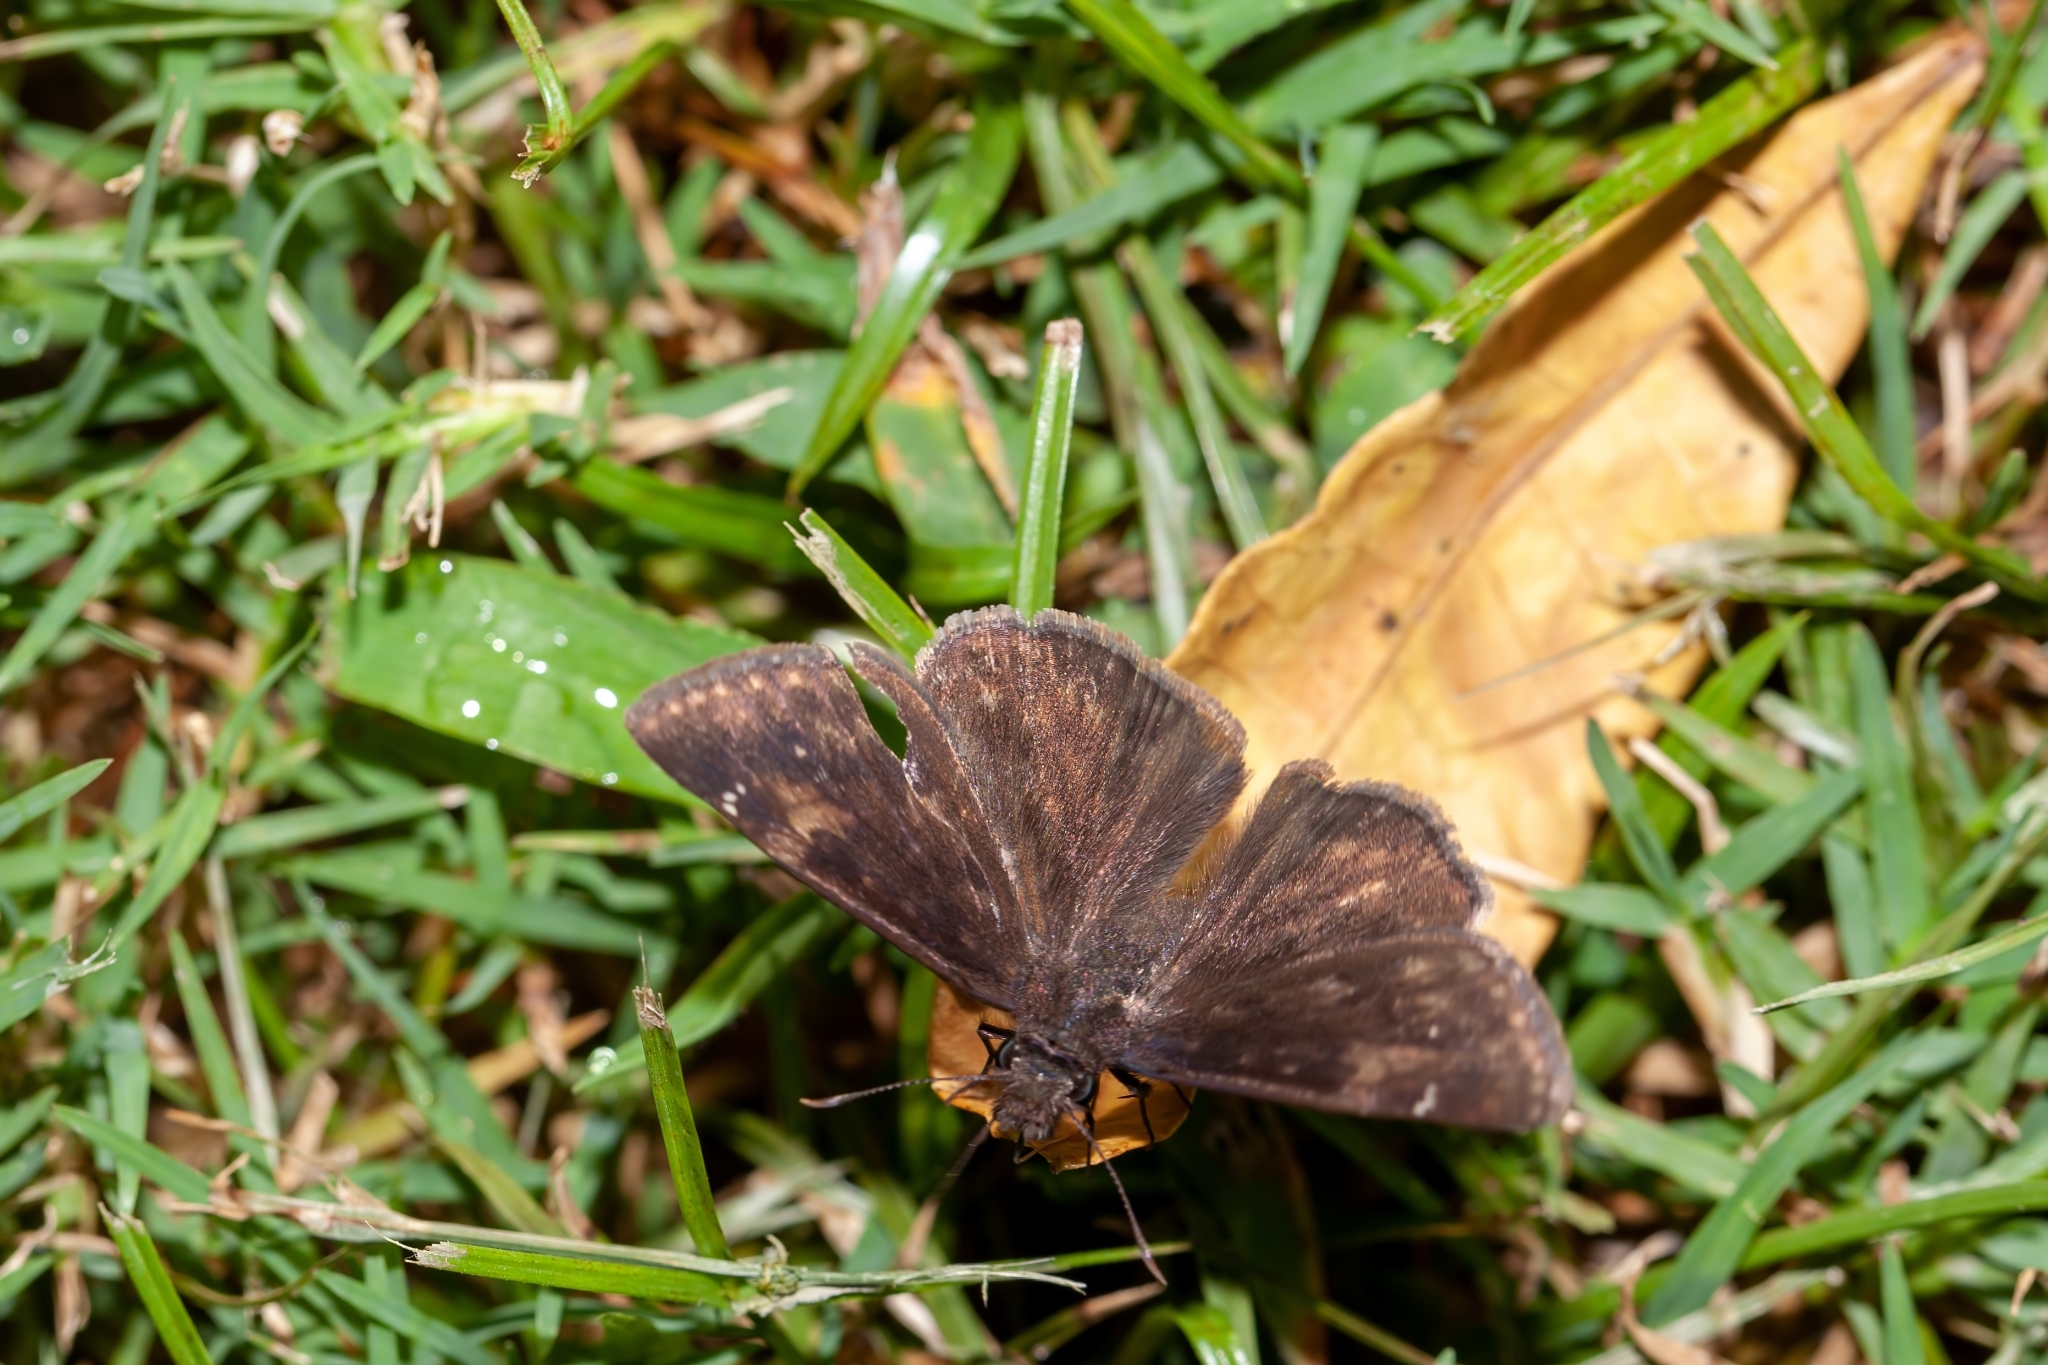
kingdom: Animalia
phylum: Arthropoda
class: Insecta
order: Lepidoptera
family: Hesperiidae
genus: Erynnis
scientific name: Erynnis zarucco
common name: Zarucco duskywing
